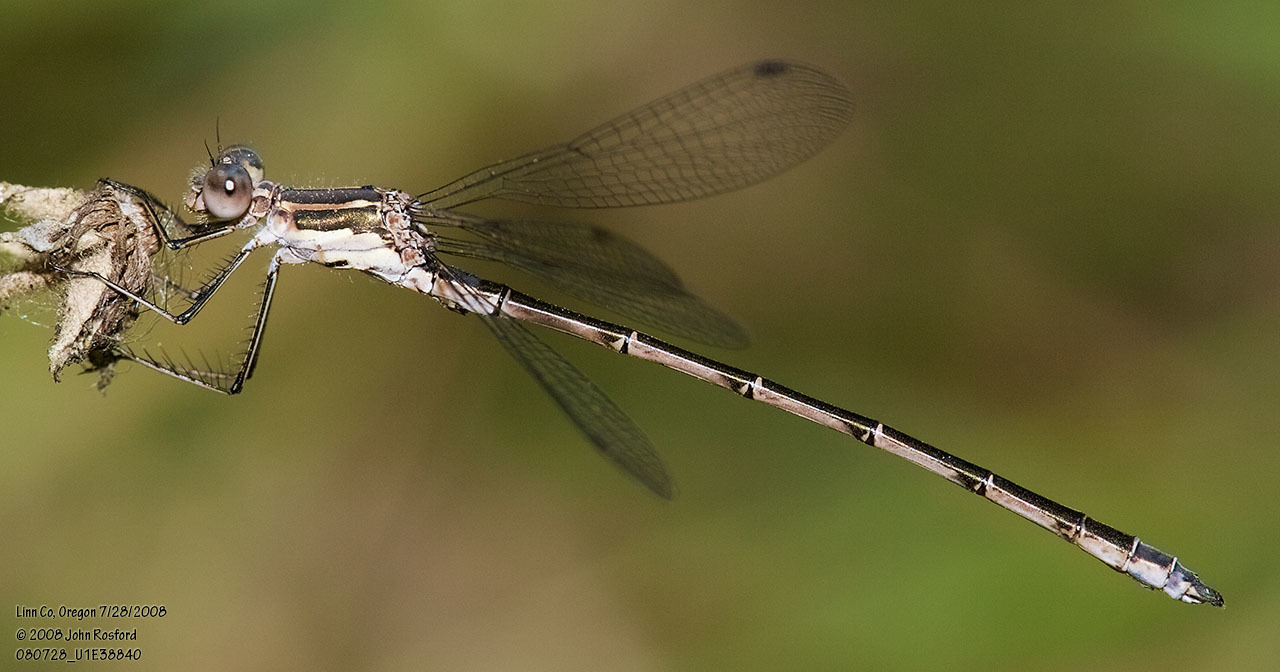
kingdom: Animalia
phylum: Arthropoda
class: Insecta
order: Odonata
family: Lestidae
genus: Lestes
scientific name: Lestes congener
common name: Spotted spreadwing
